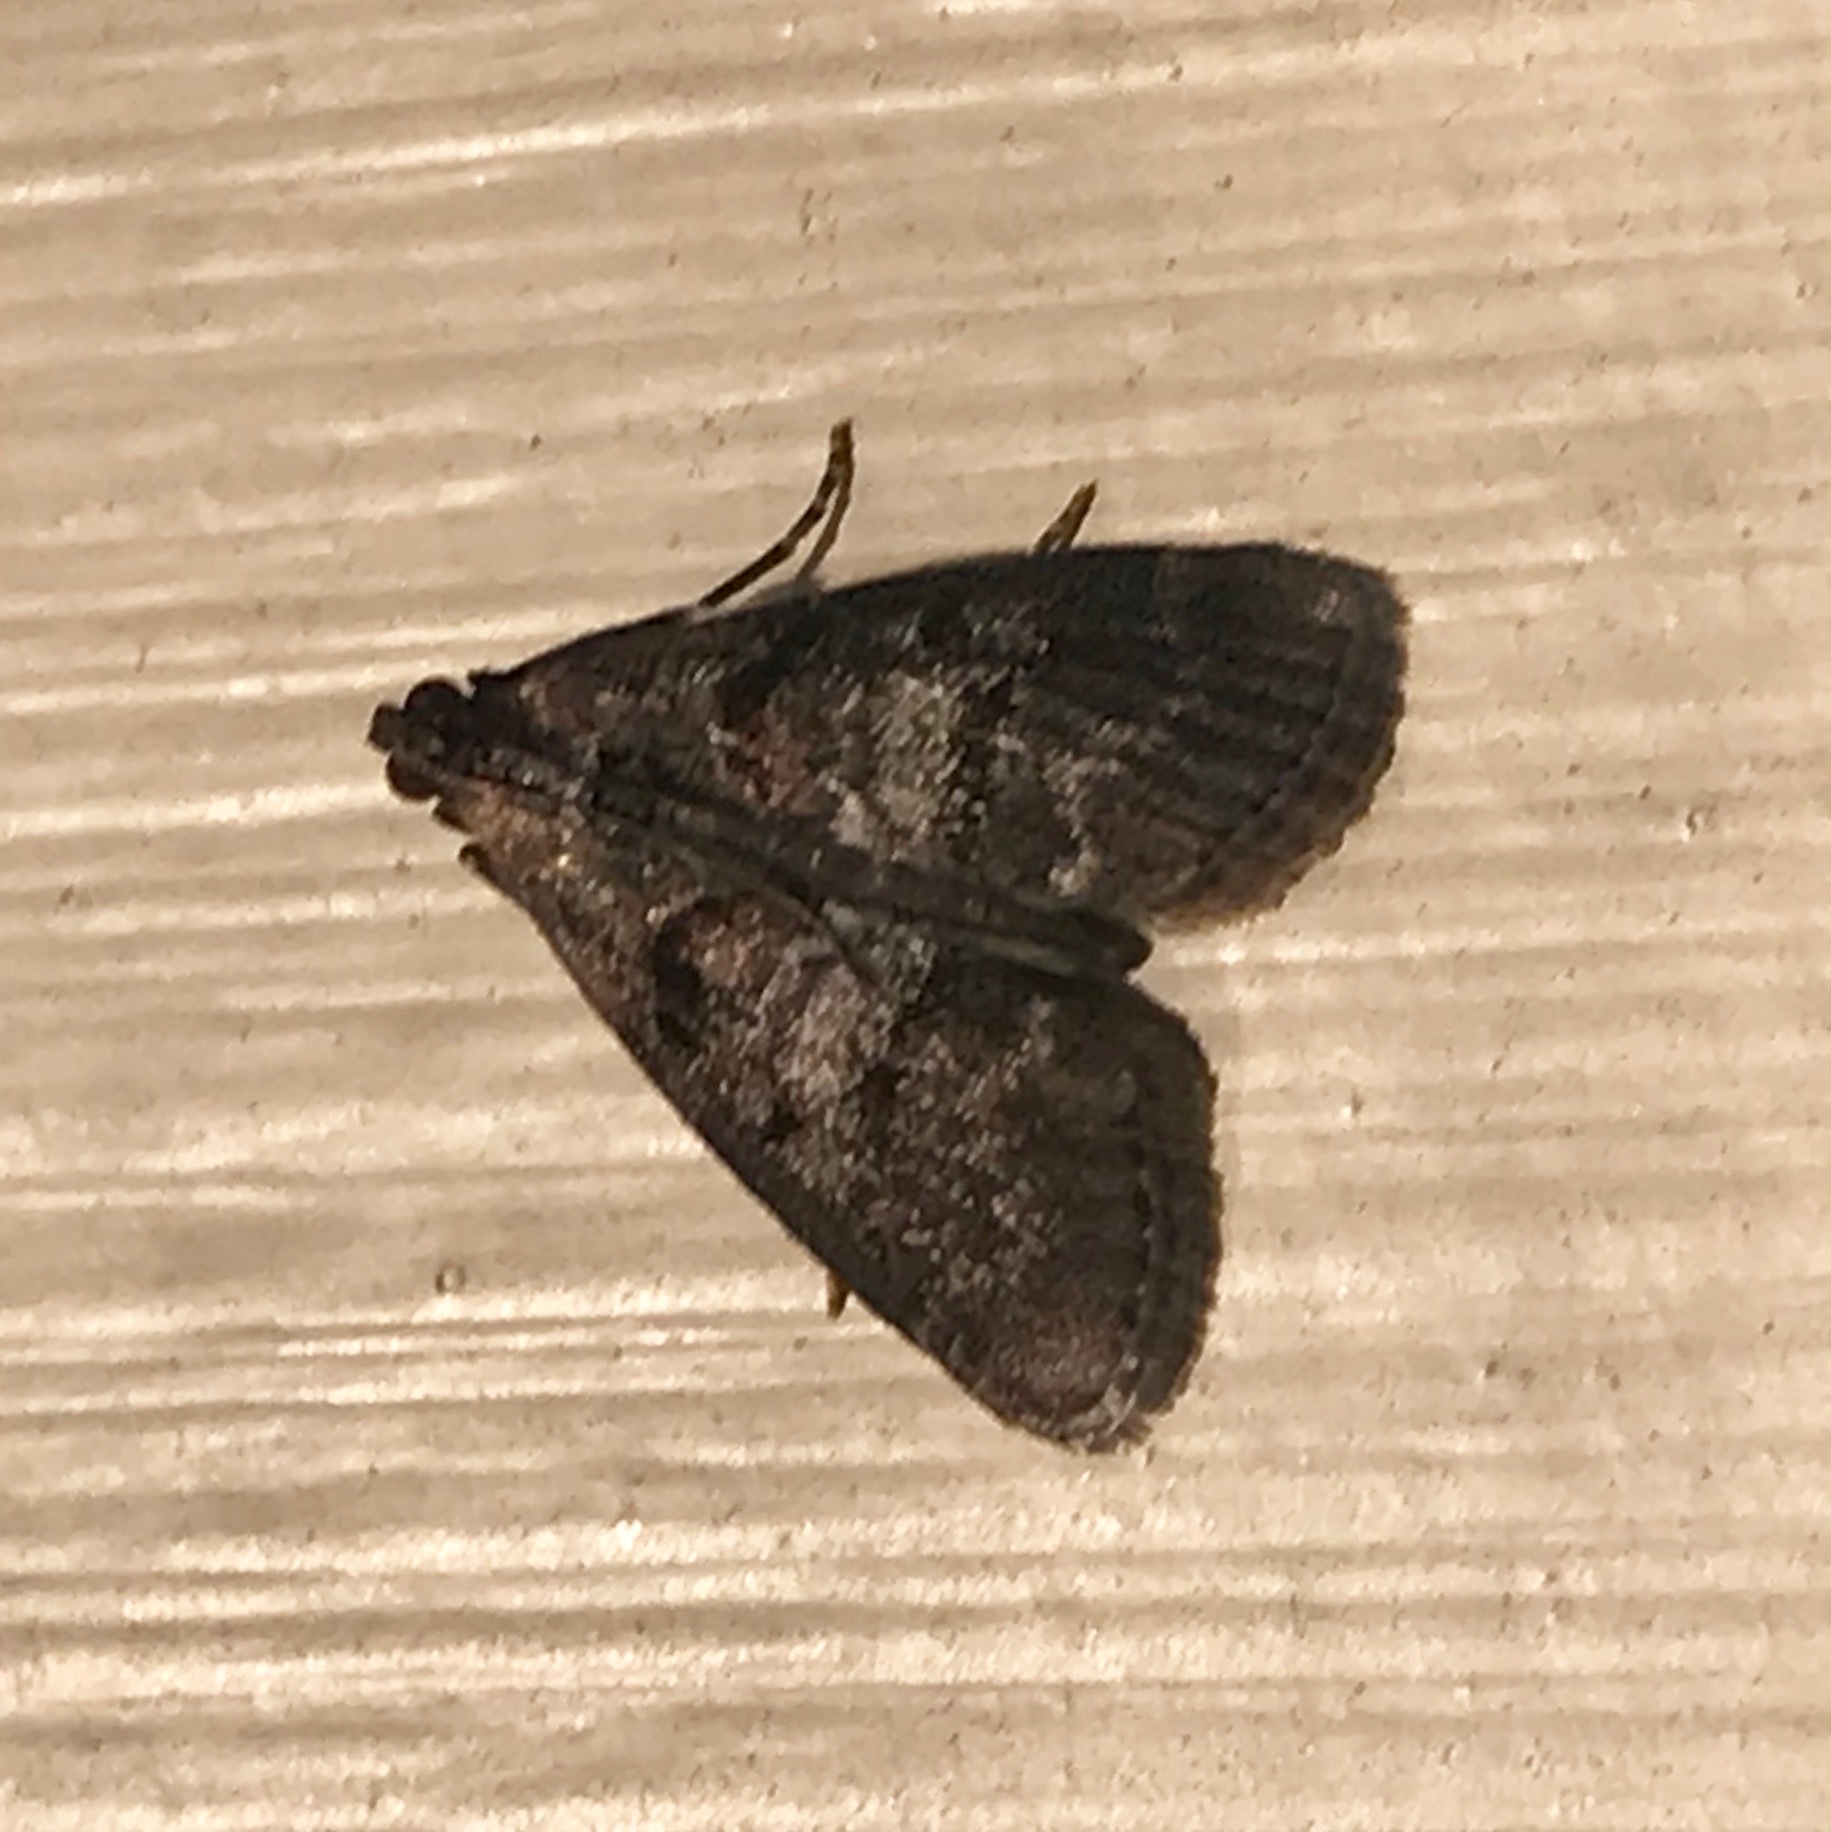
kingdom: Animalia
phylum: Arthropoda
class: Insecta
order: Lepidoptera
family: Pyralidae
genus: Pococera
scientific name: Pococera asperatella
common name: Maple webworm moth
